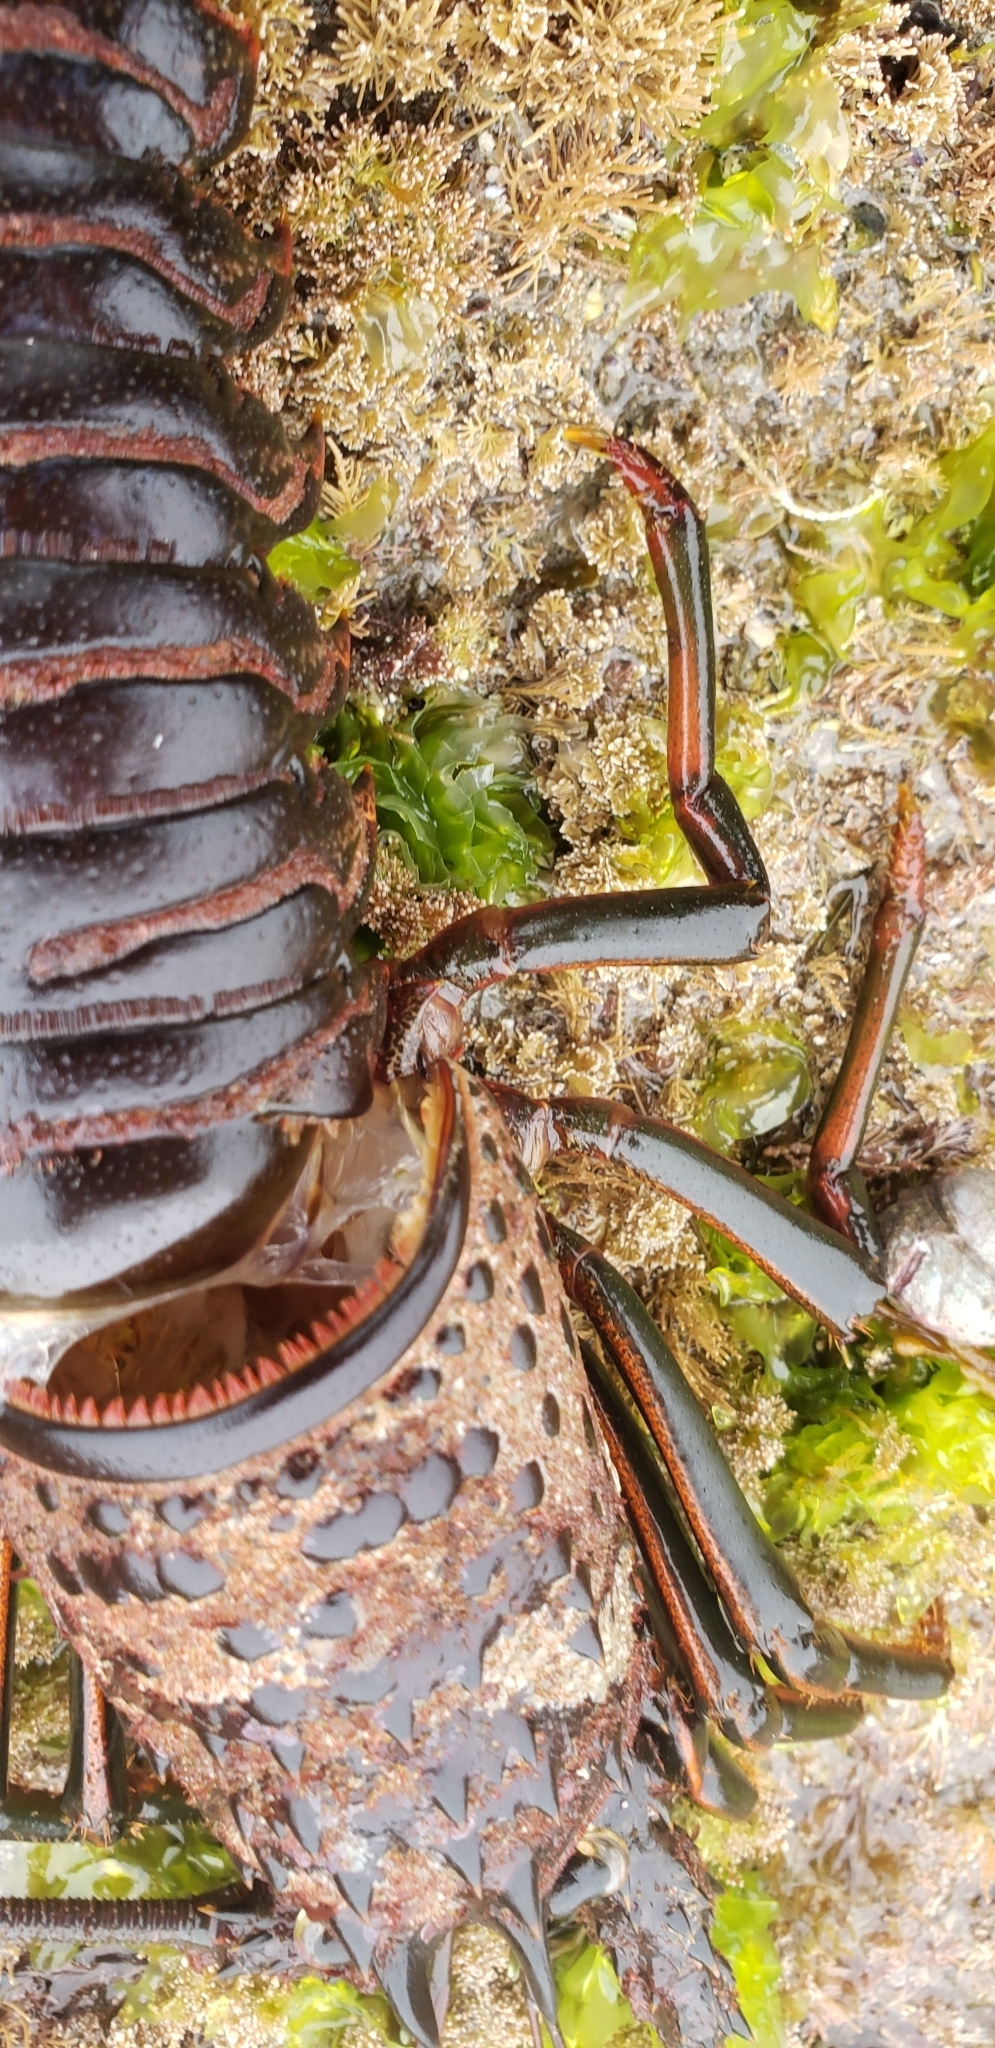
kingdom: Animalia
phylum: Arthropoda
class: Malacostraca
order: Decapoda
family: Palinuridae
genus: Panulirus
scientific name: Panulirus interruptus
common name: California spiny lobster
